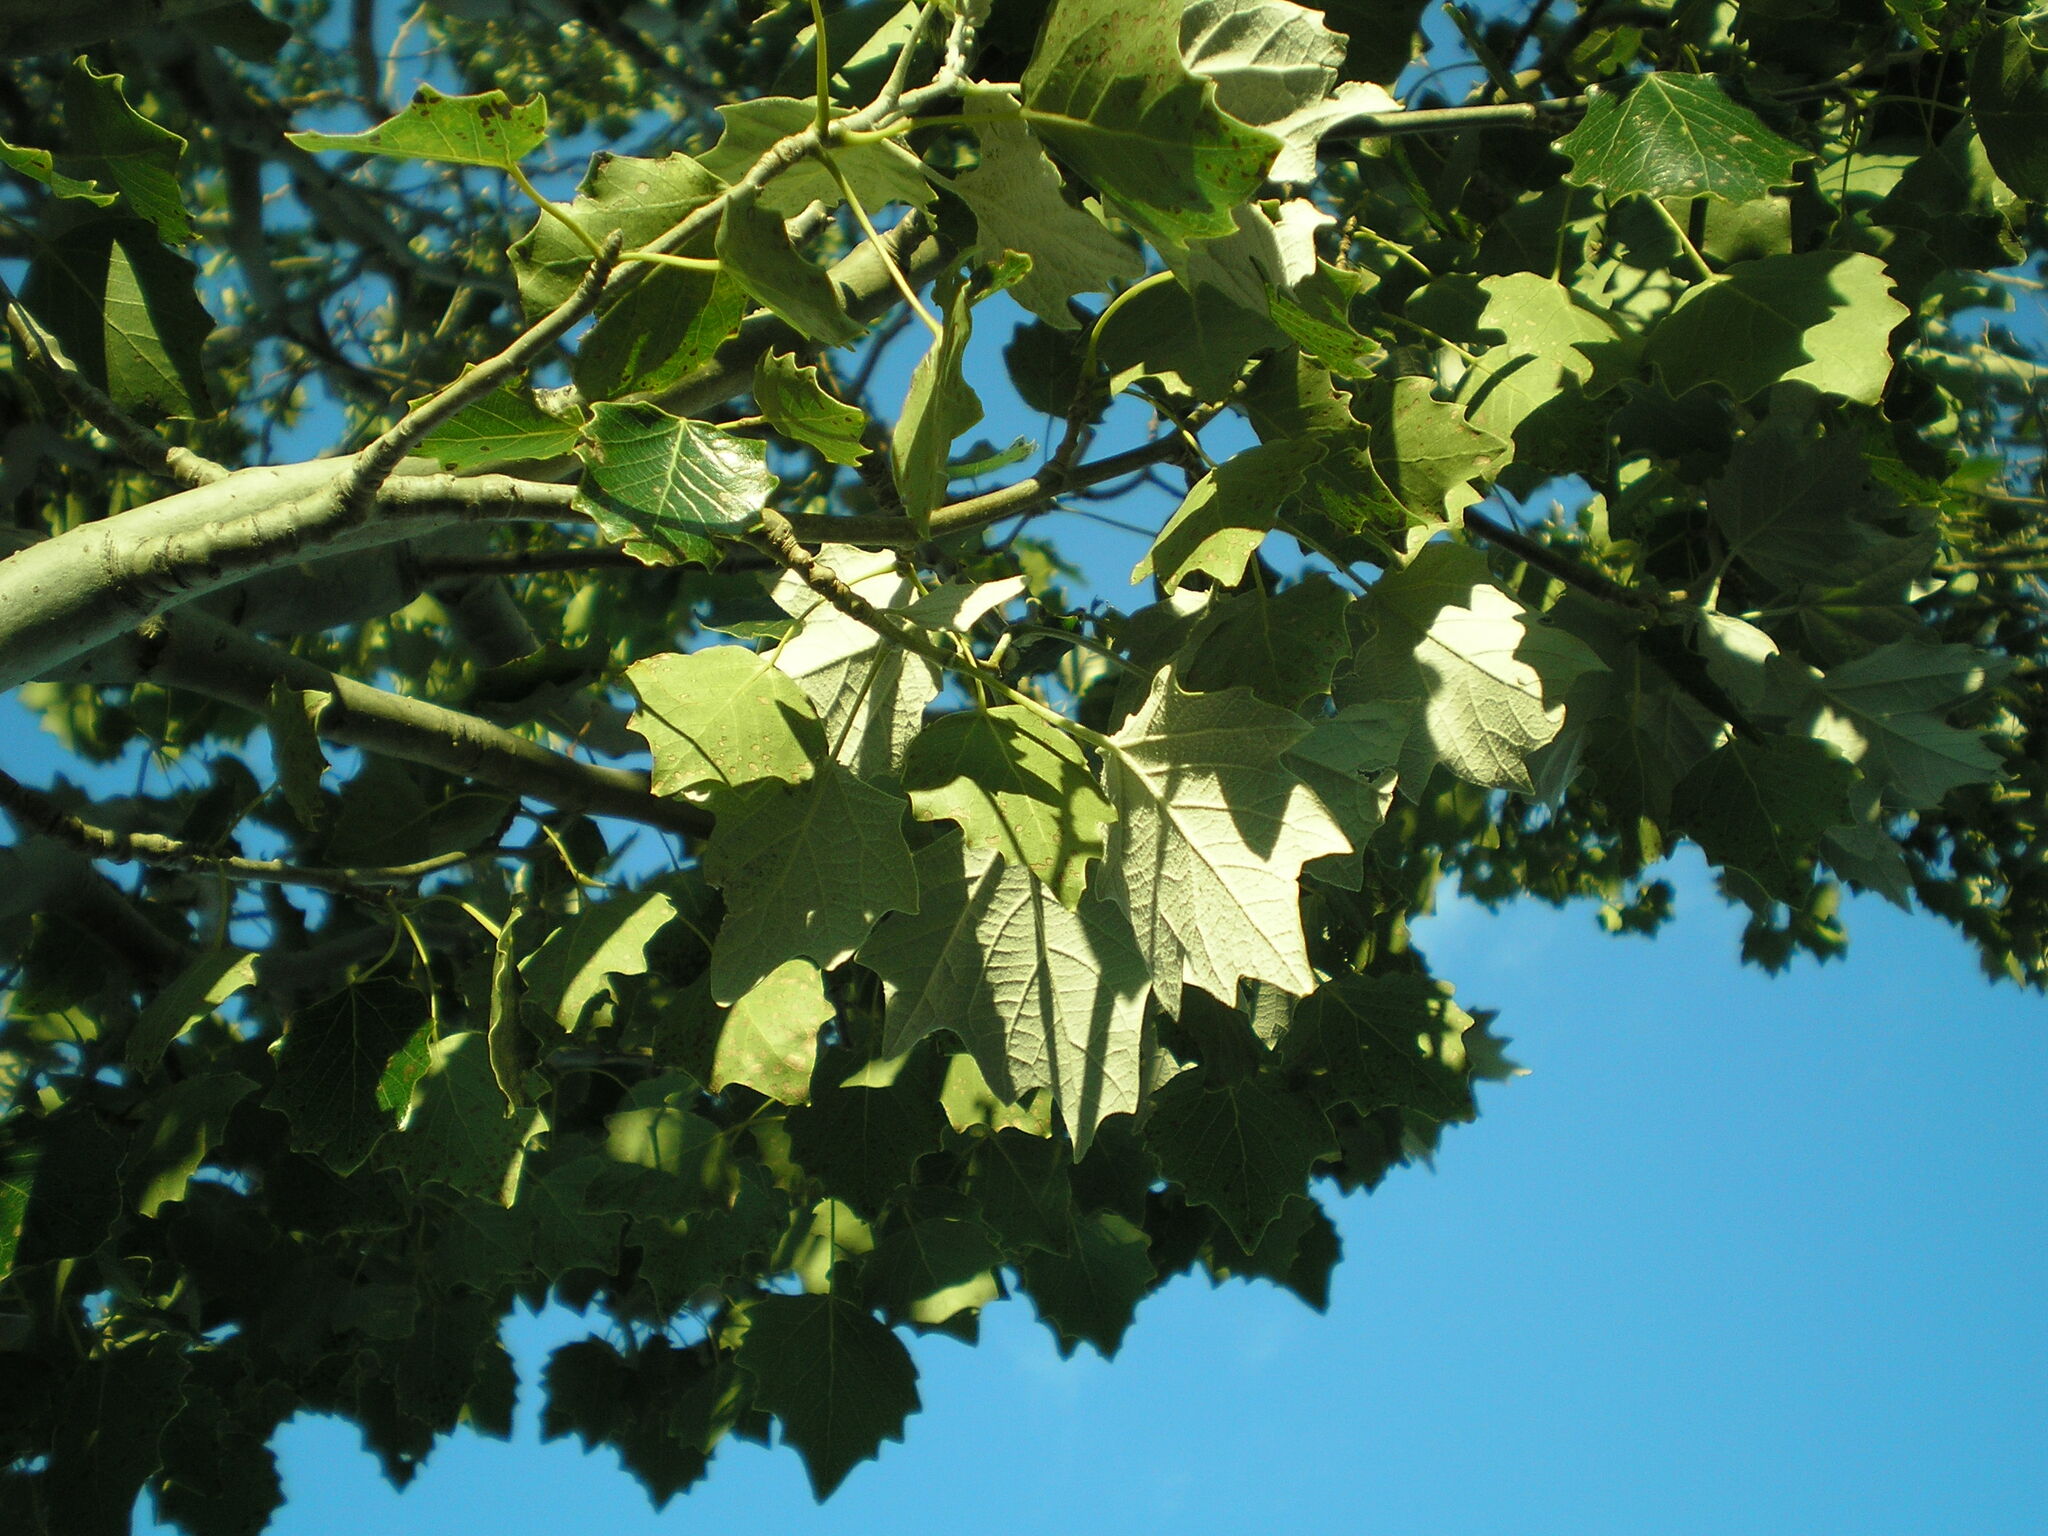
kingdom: Plantae
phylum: Tracheophyta
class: Magnoliopsida
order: Malpighiales
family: Salicaceae
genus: Populus
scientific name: Populus alba
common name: White poplar
